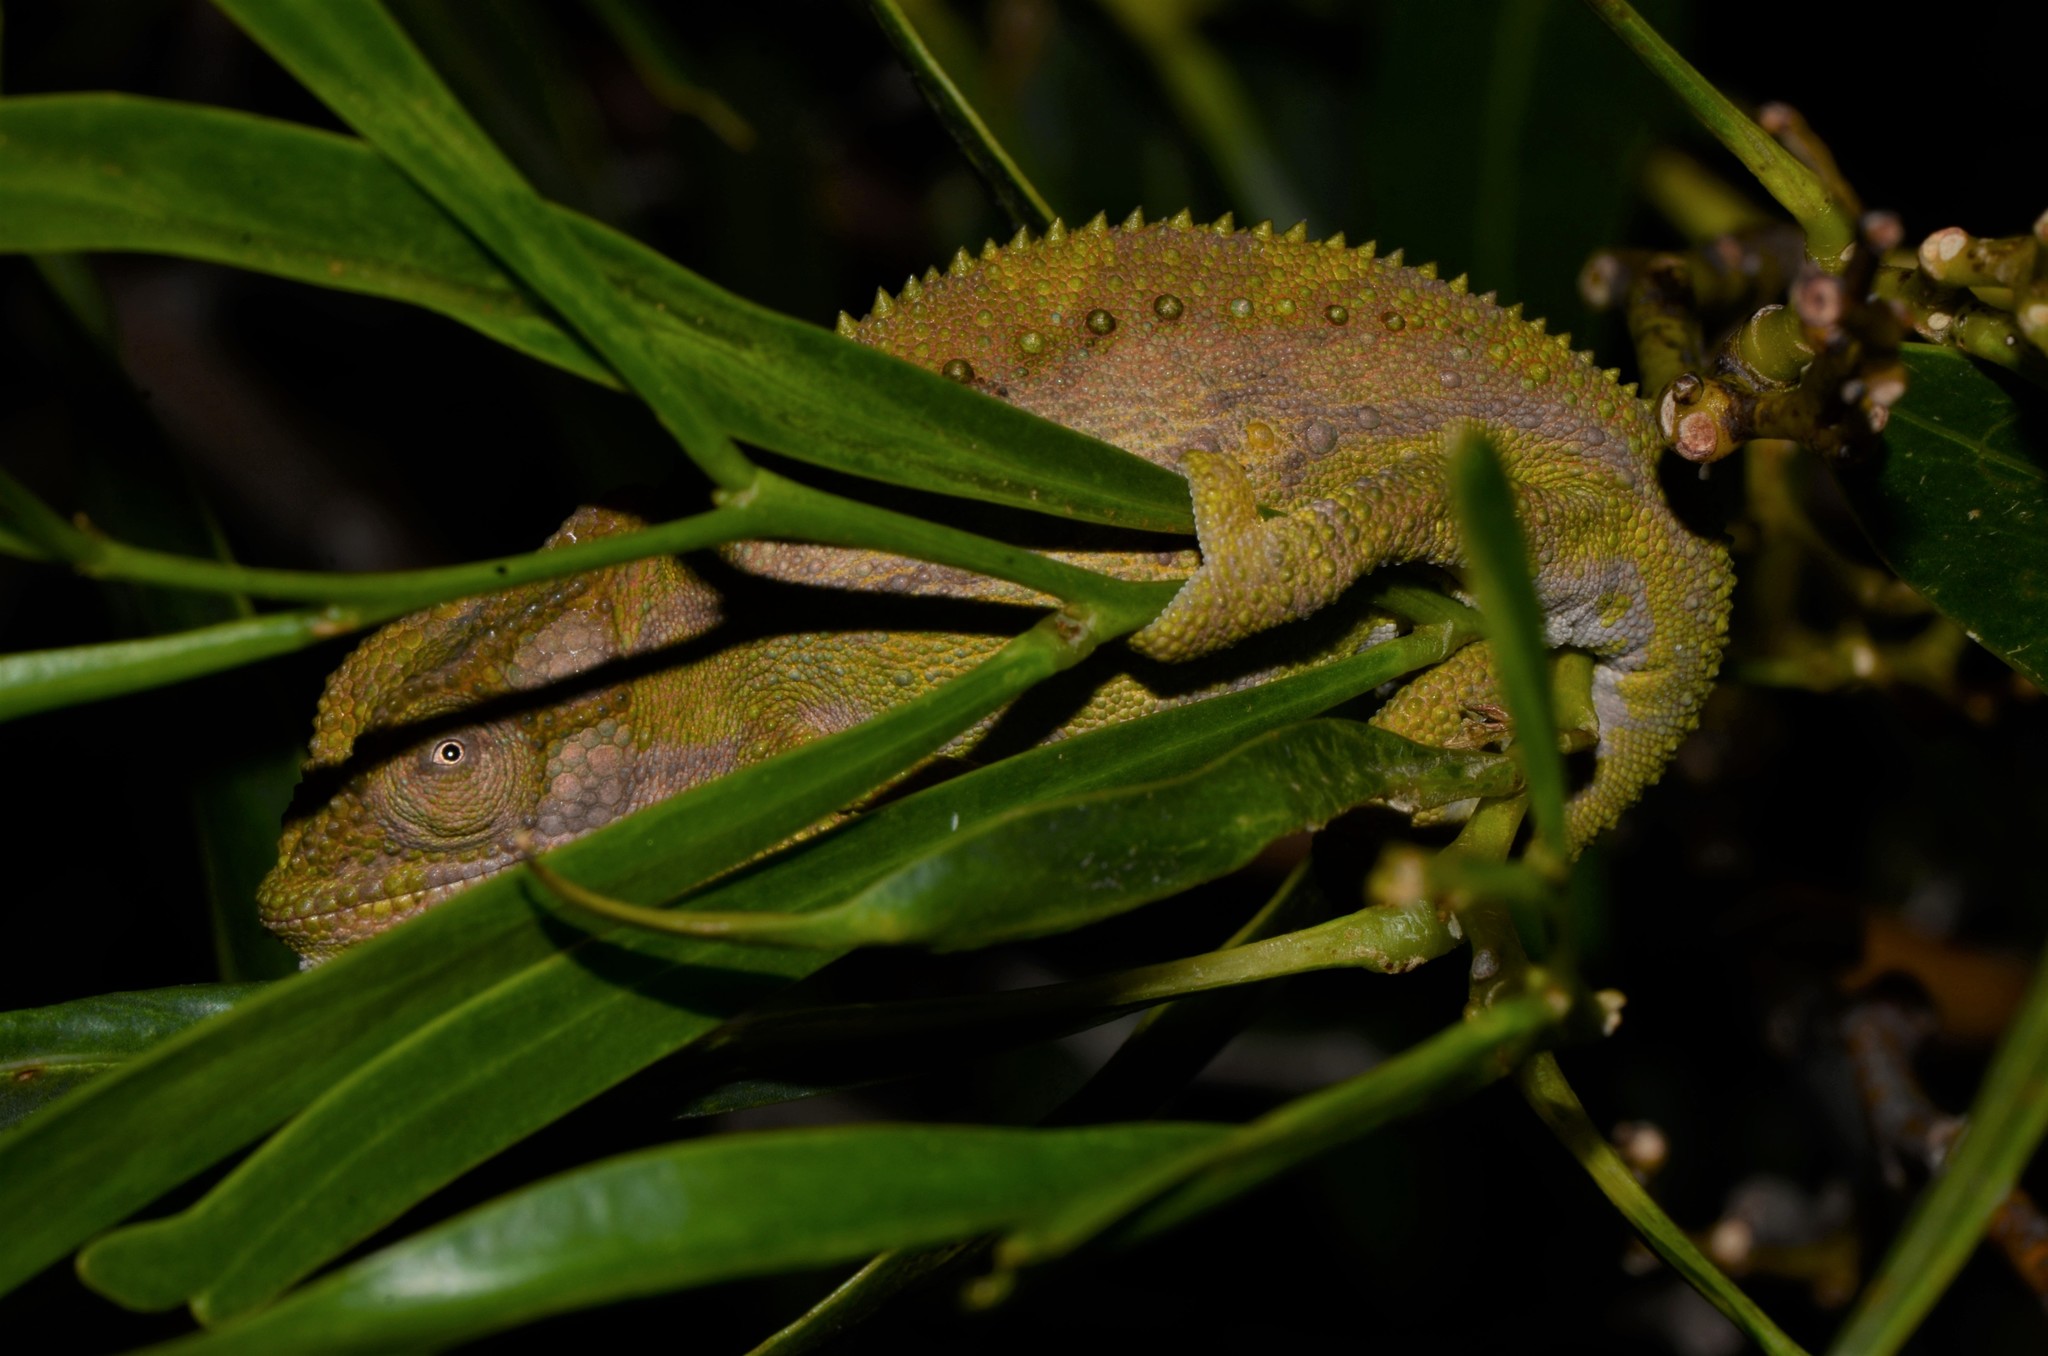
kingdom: Animalia
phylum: Chordata
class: Squamata
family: Chamaeleonidae
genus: Bradypodion
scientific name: Bradypodion pumilum
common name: Cape dwarf chameleon
